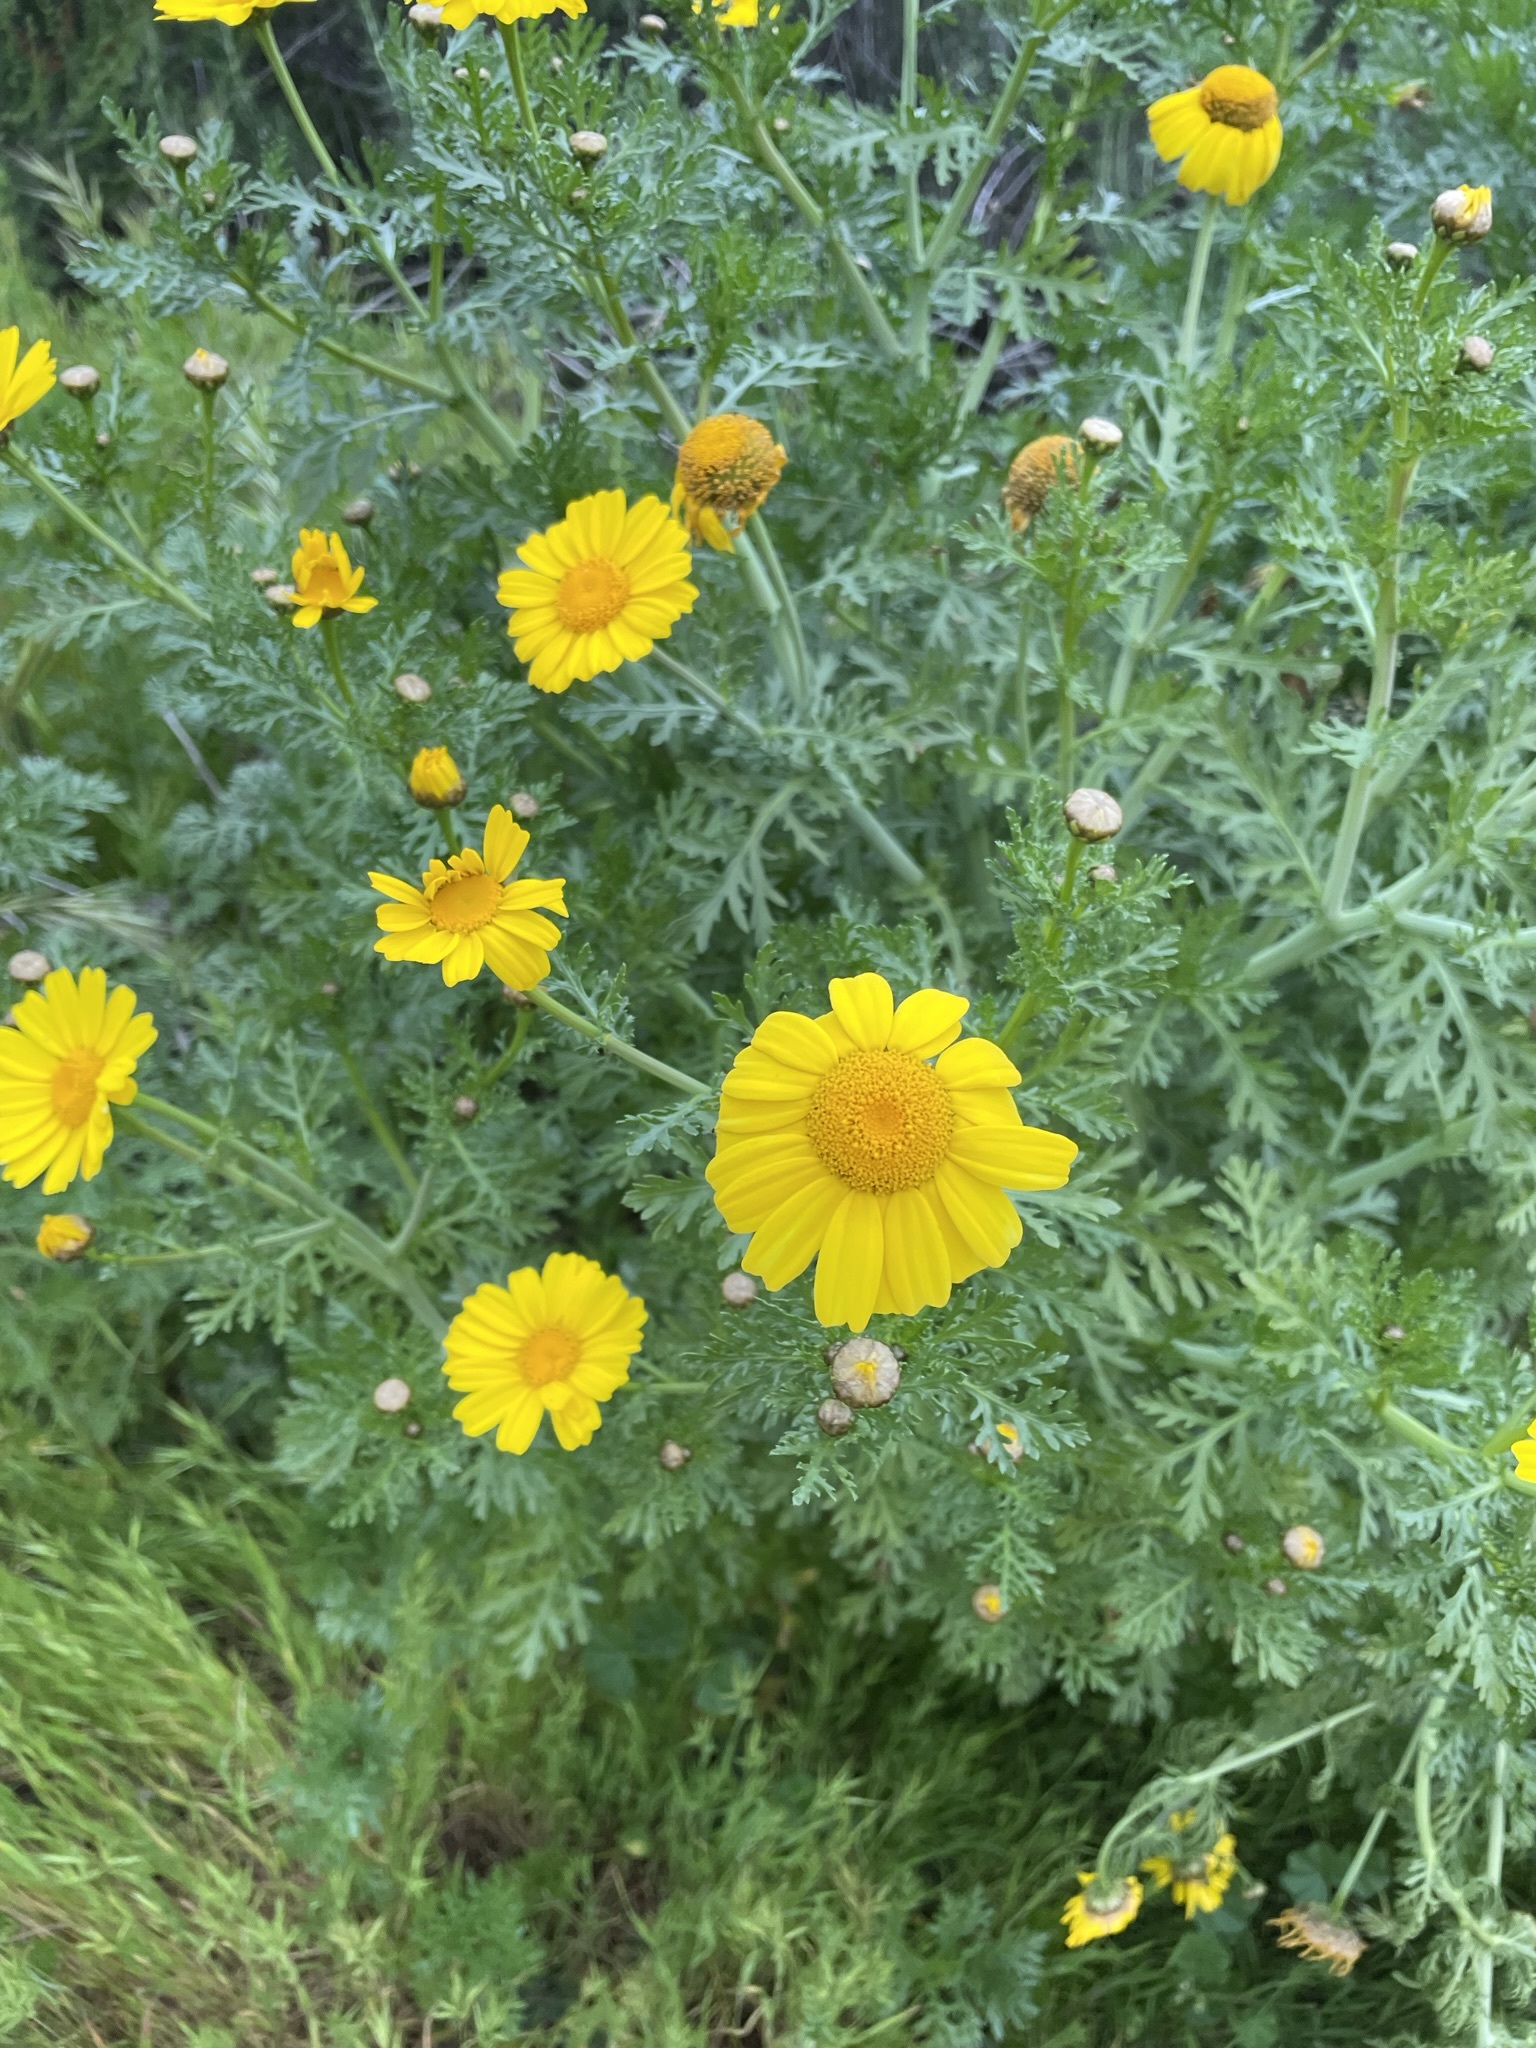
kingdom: Plantae
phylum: Tracheophyta
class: Magnoliopsida
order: Asterales
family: Asteraceae
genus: Glebionis
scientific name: Glebionis coronaria
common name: Crowndaisy
